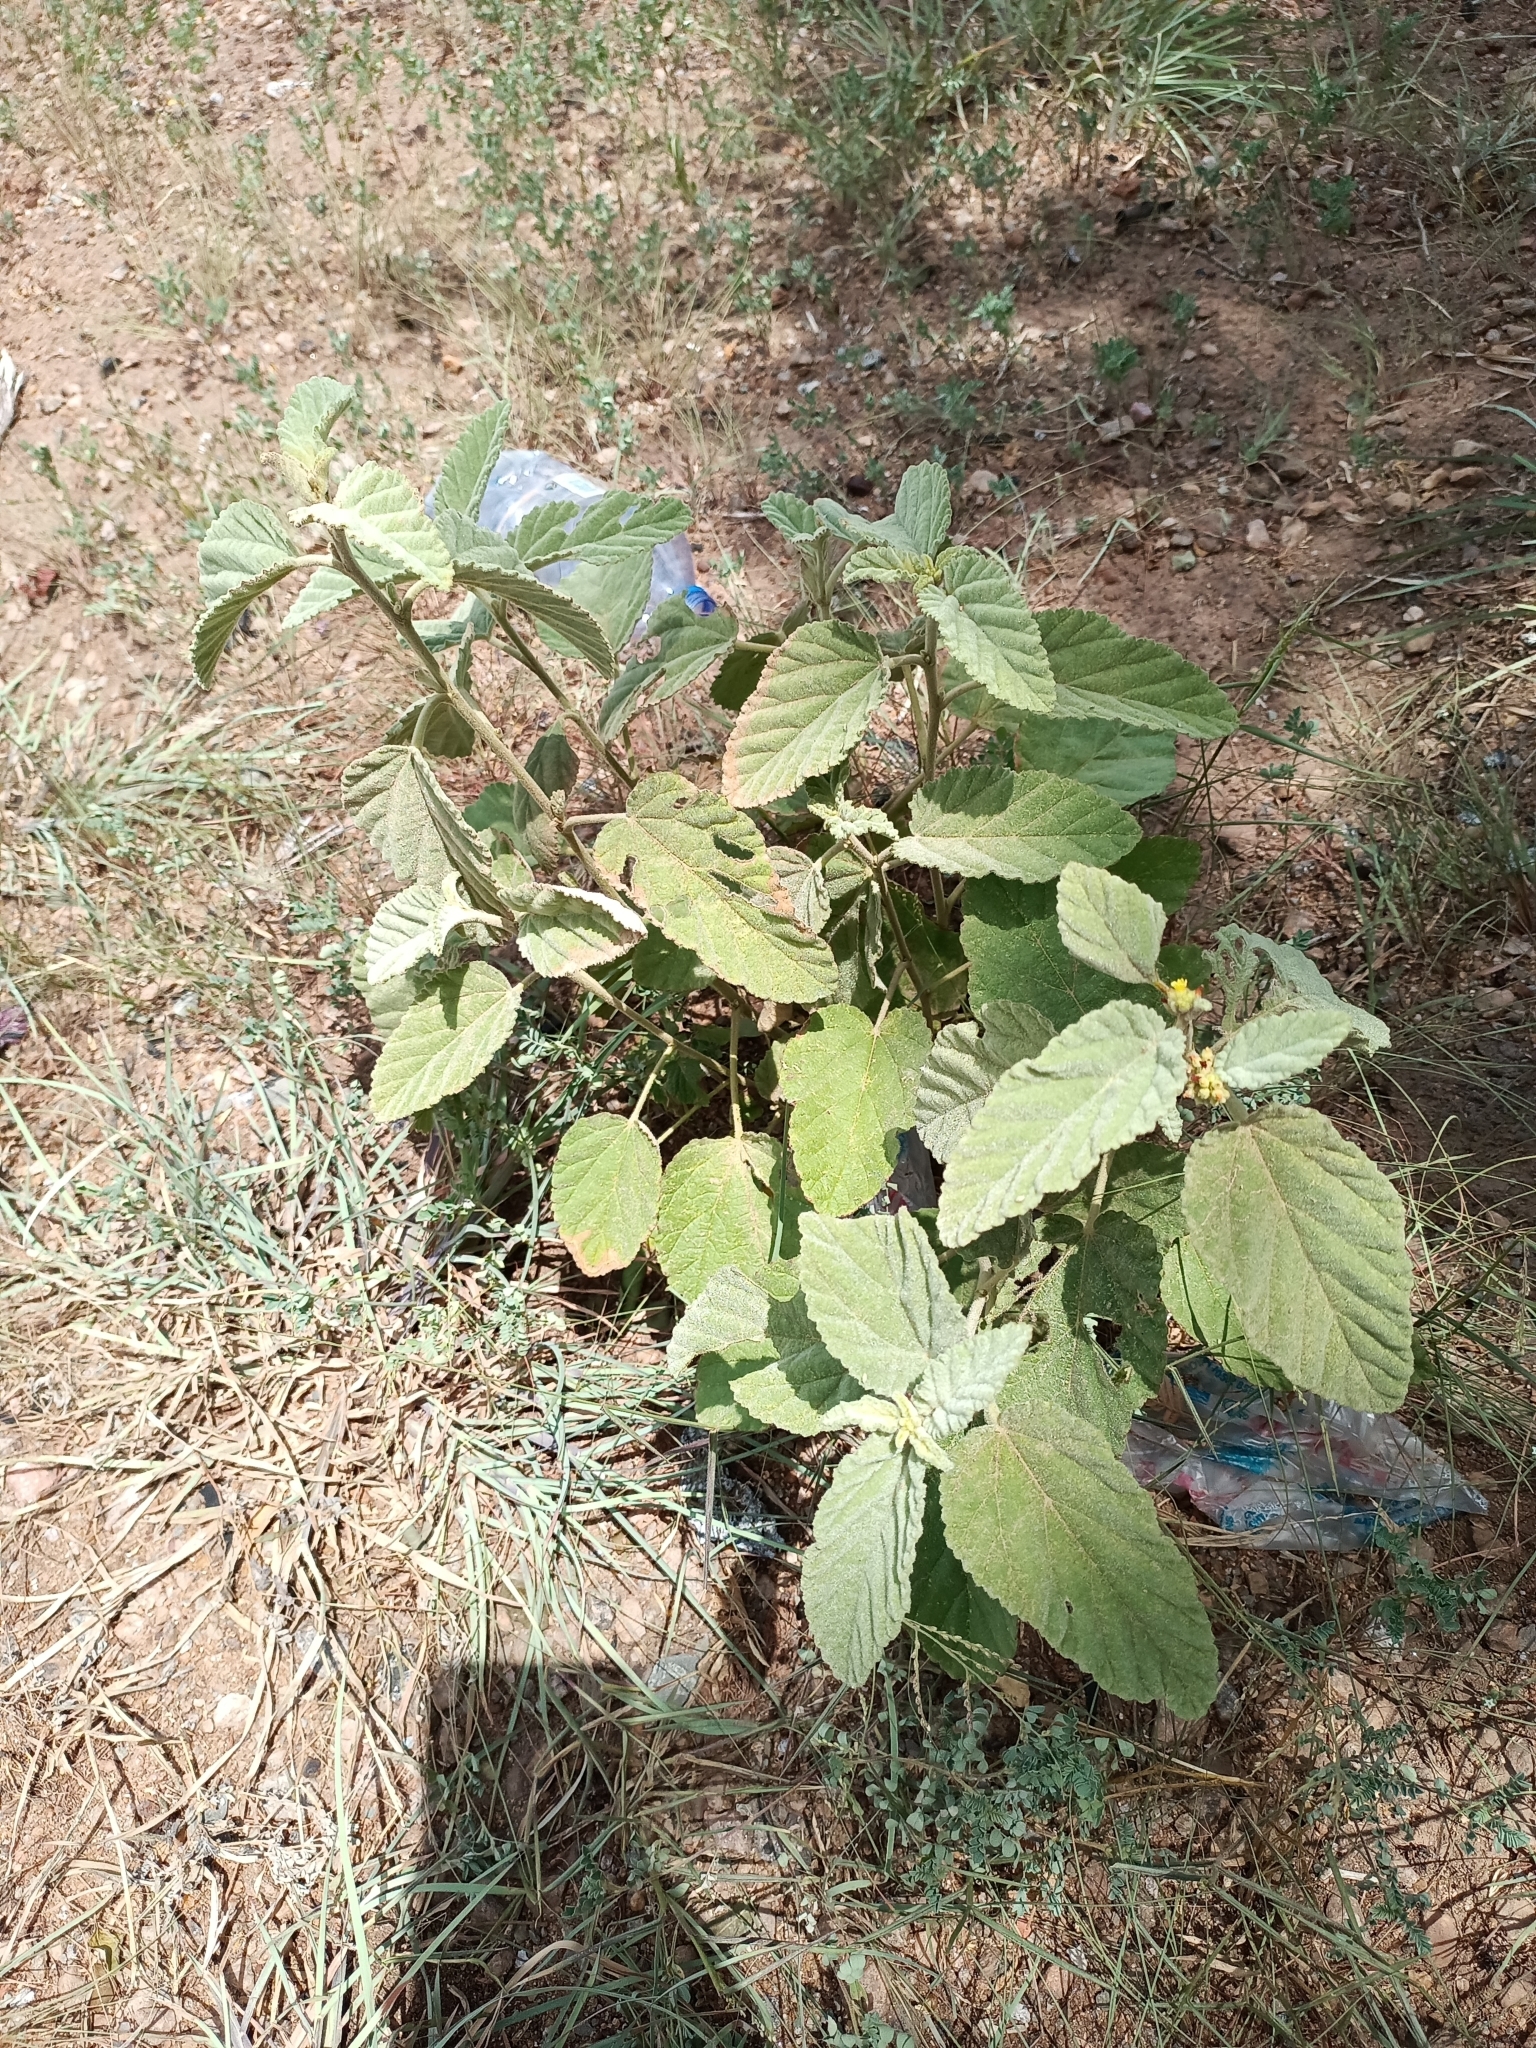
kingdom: Plantae
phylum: Tracheophyta
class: Magnoliopsida
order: Malvales
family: Malvaceae
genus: Waltheria
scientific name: Waltheria indica
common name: Leather-coat
